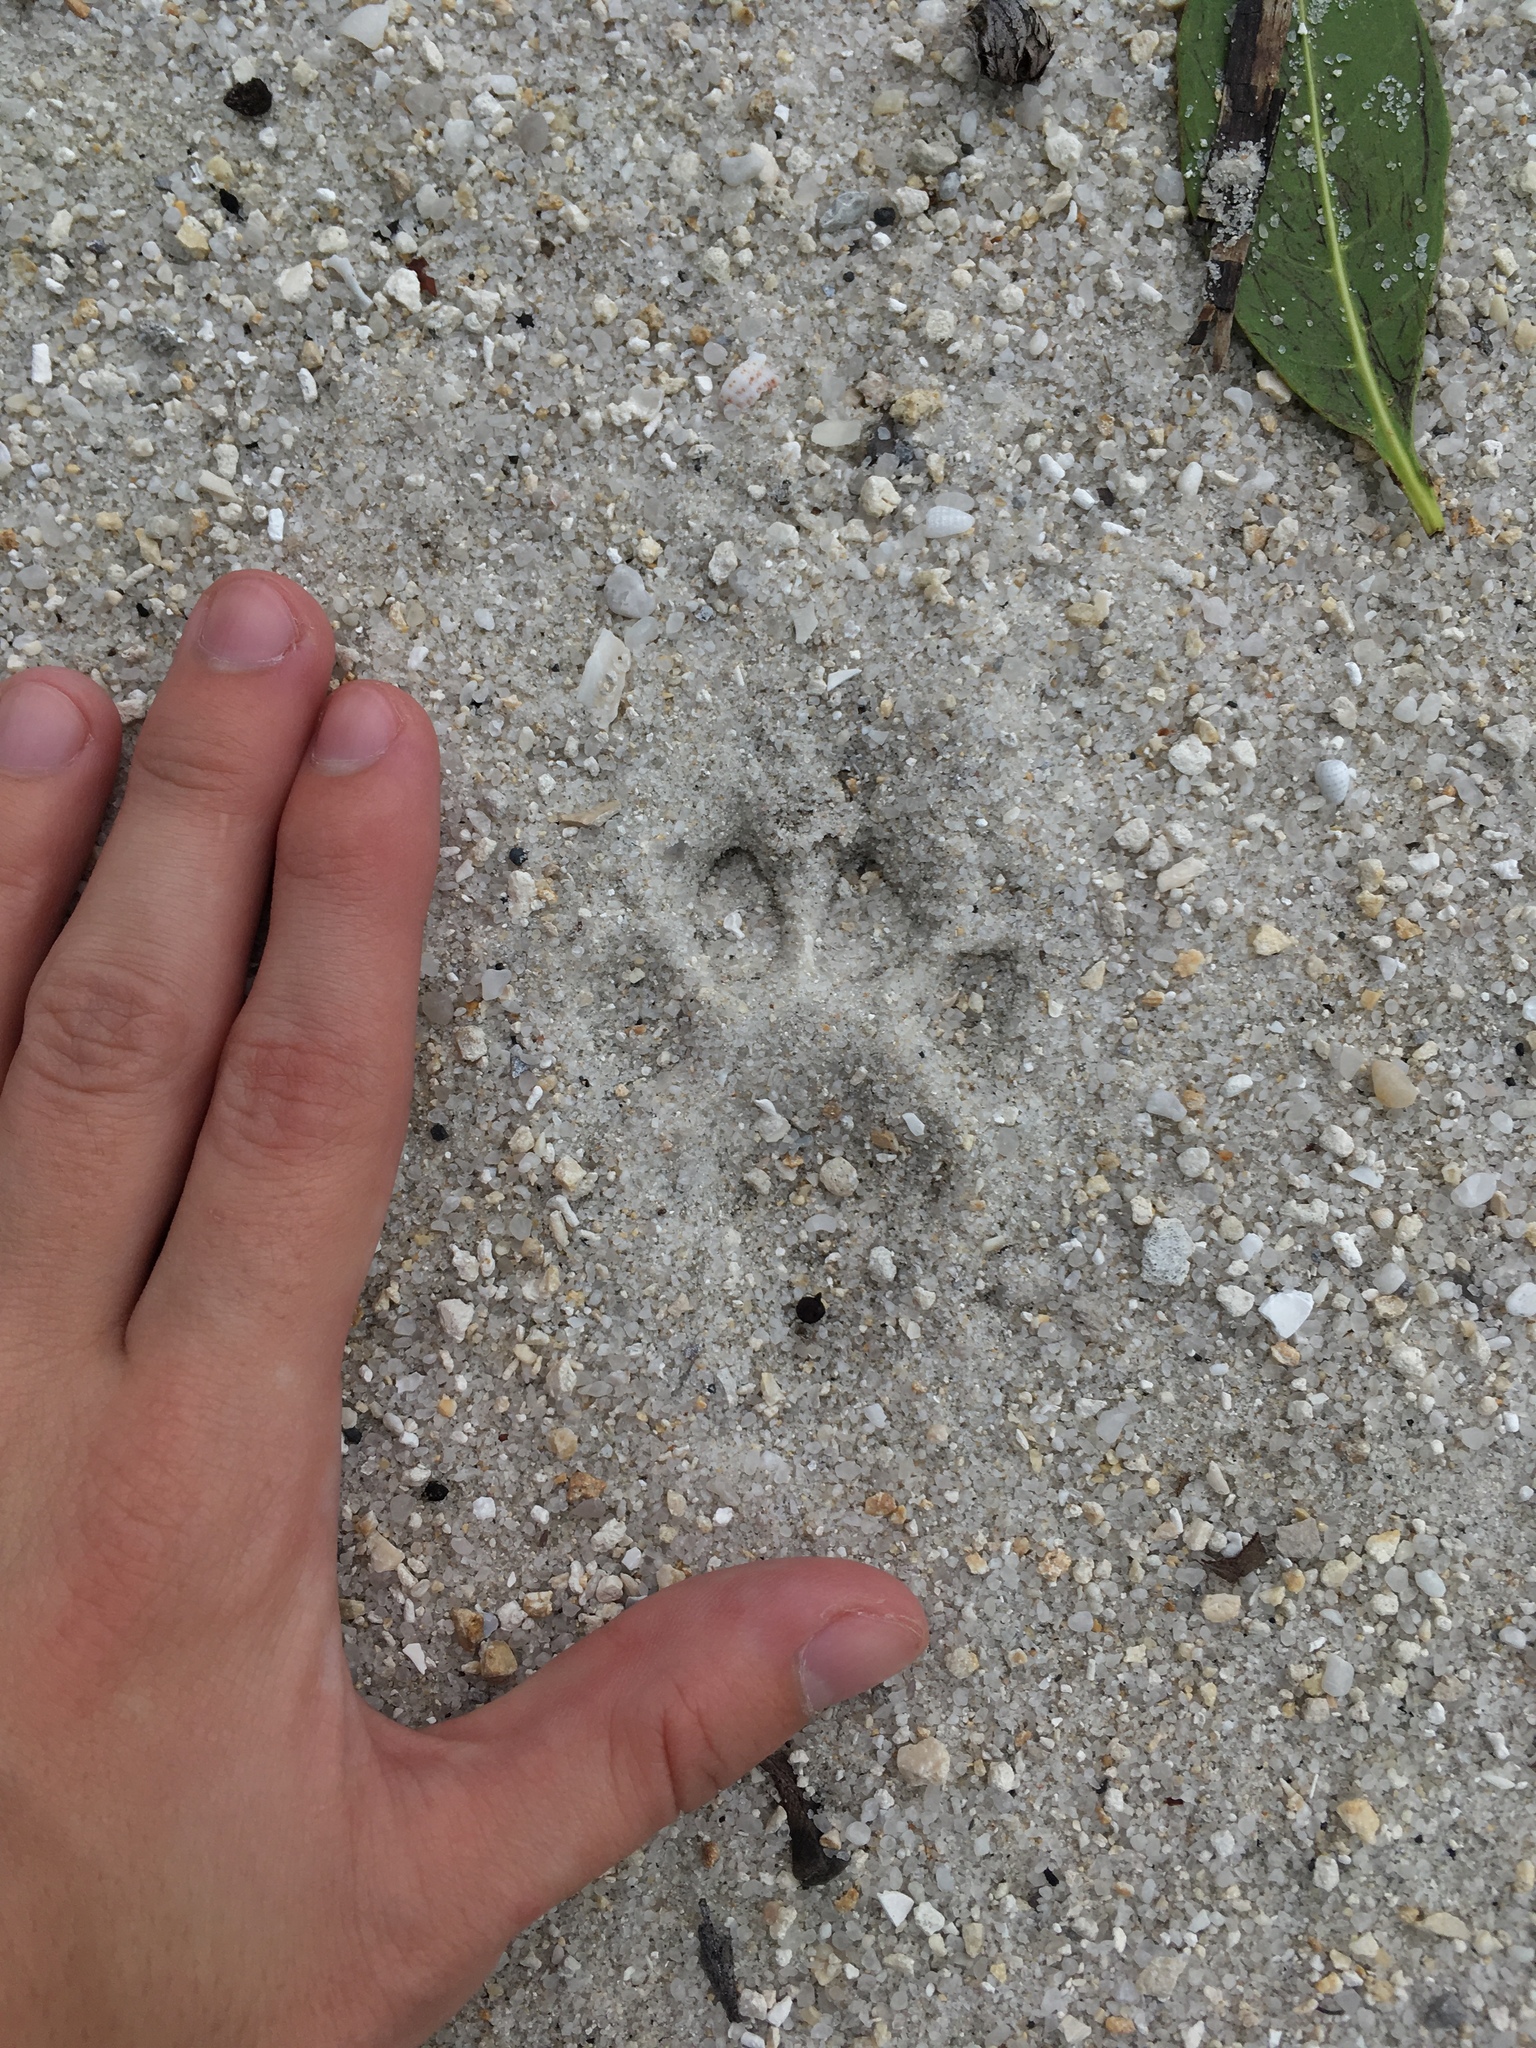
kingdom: Animalia
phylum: Chordata
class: Mammalia
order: Carnivora
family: Felidae
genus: Lynx
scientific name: Lynx rufus
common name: Bobcat
